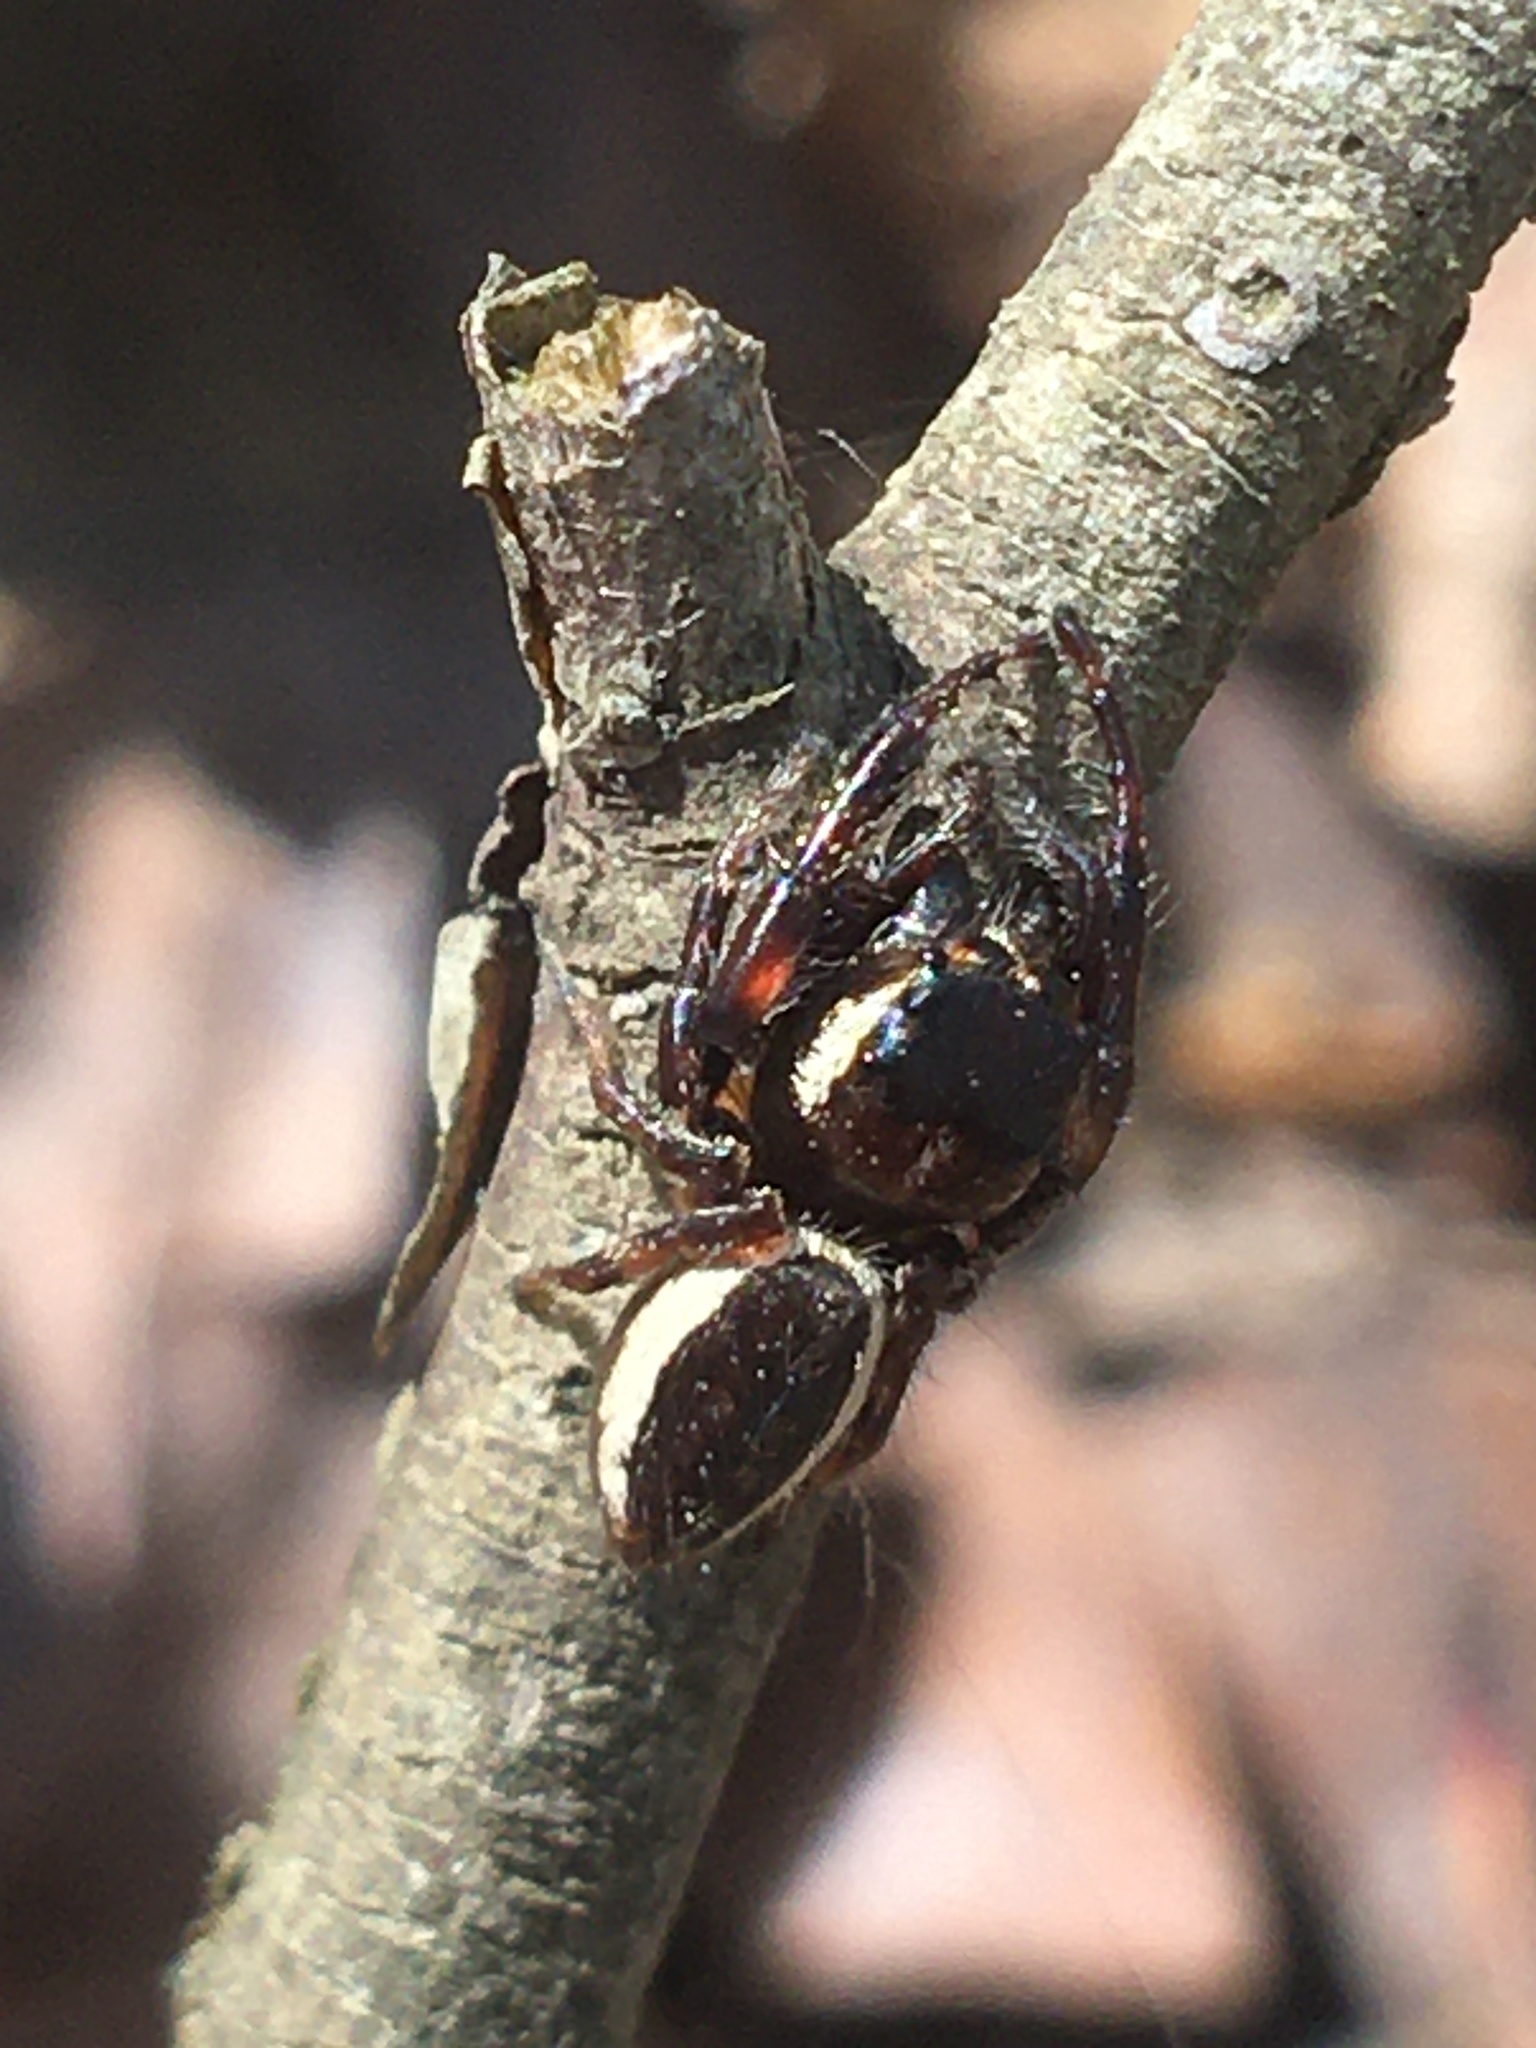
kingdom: Animalia
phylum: Arthropoda
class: Arachnida
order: Araneae
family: Salticidae
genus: Eris
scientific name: Eris militaris
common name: Bronze jumper
